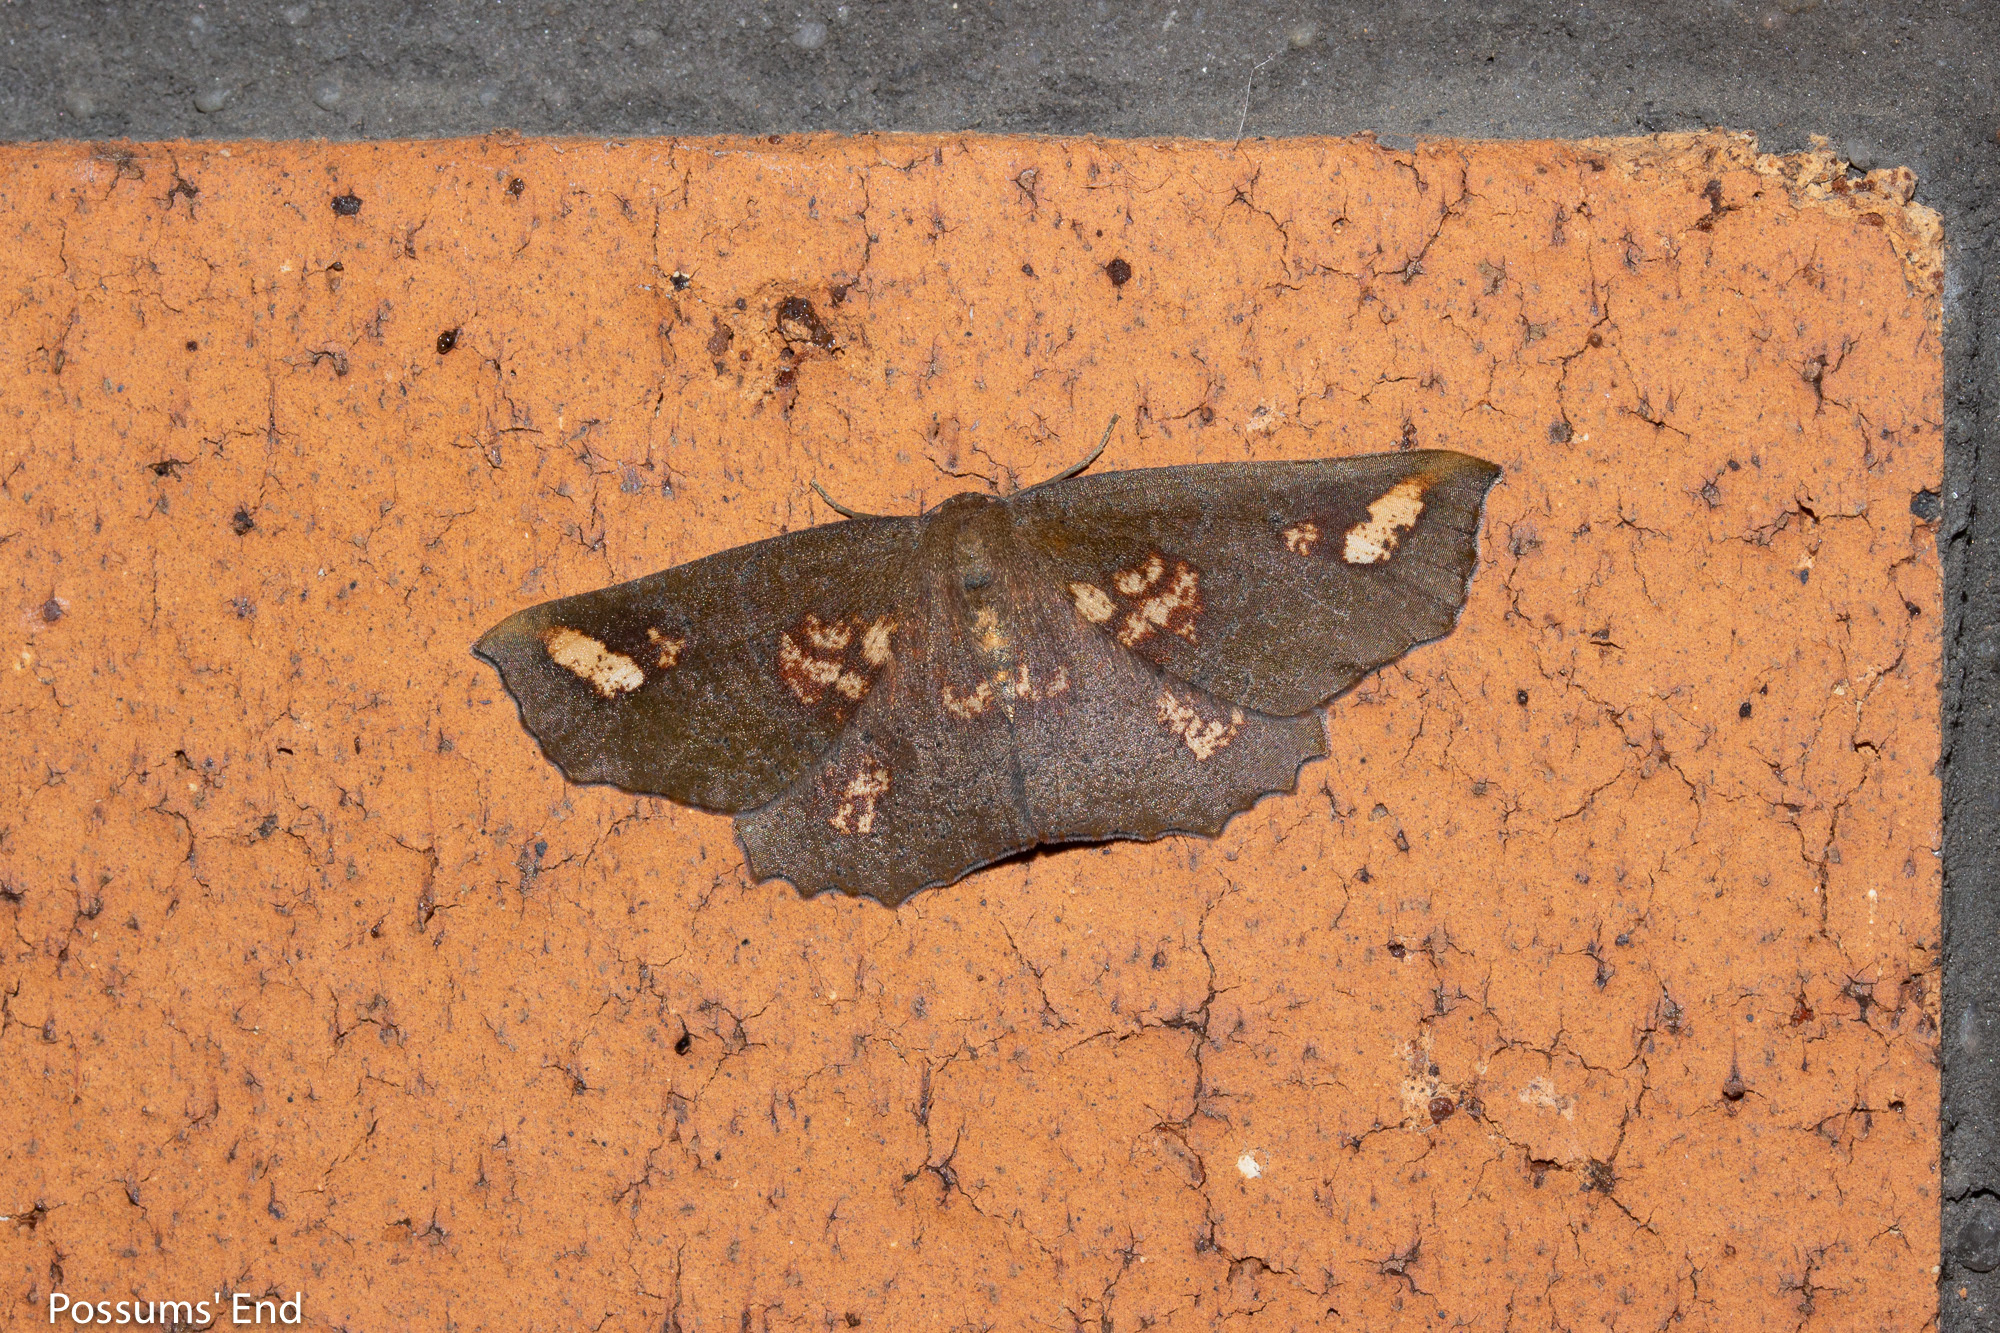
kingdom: Animalia
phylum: Arthropoda
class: Insecta
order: Lepidoptera
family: Geometridae
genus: Xyridacma
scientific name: Xyridacma ustaria
